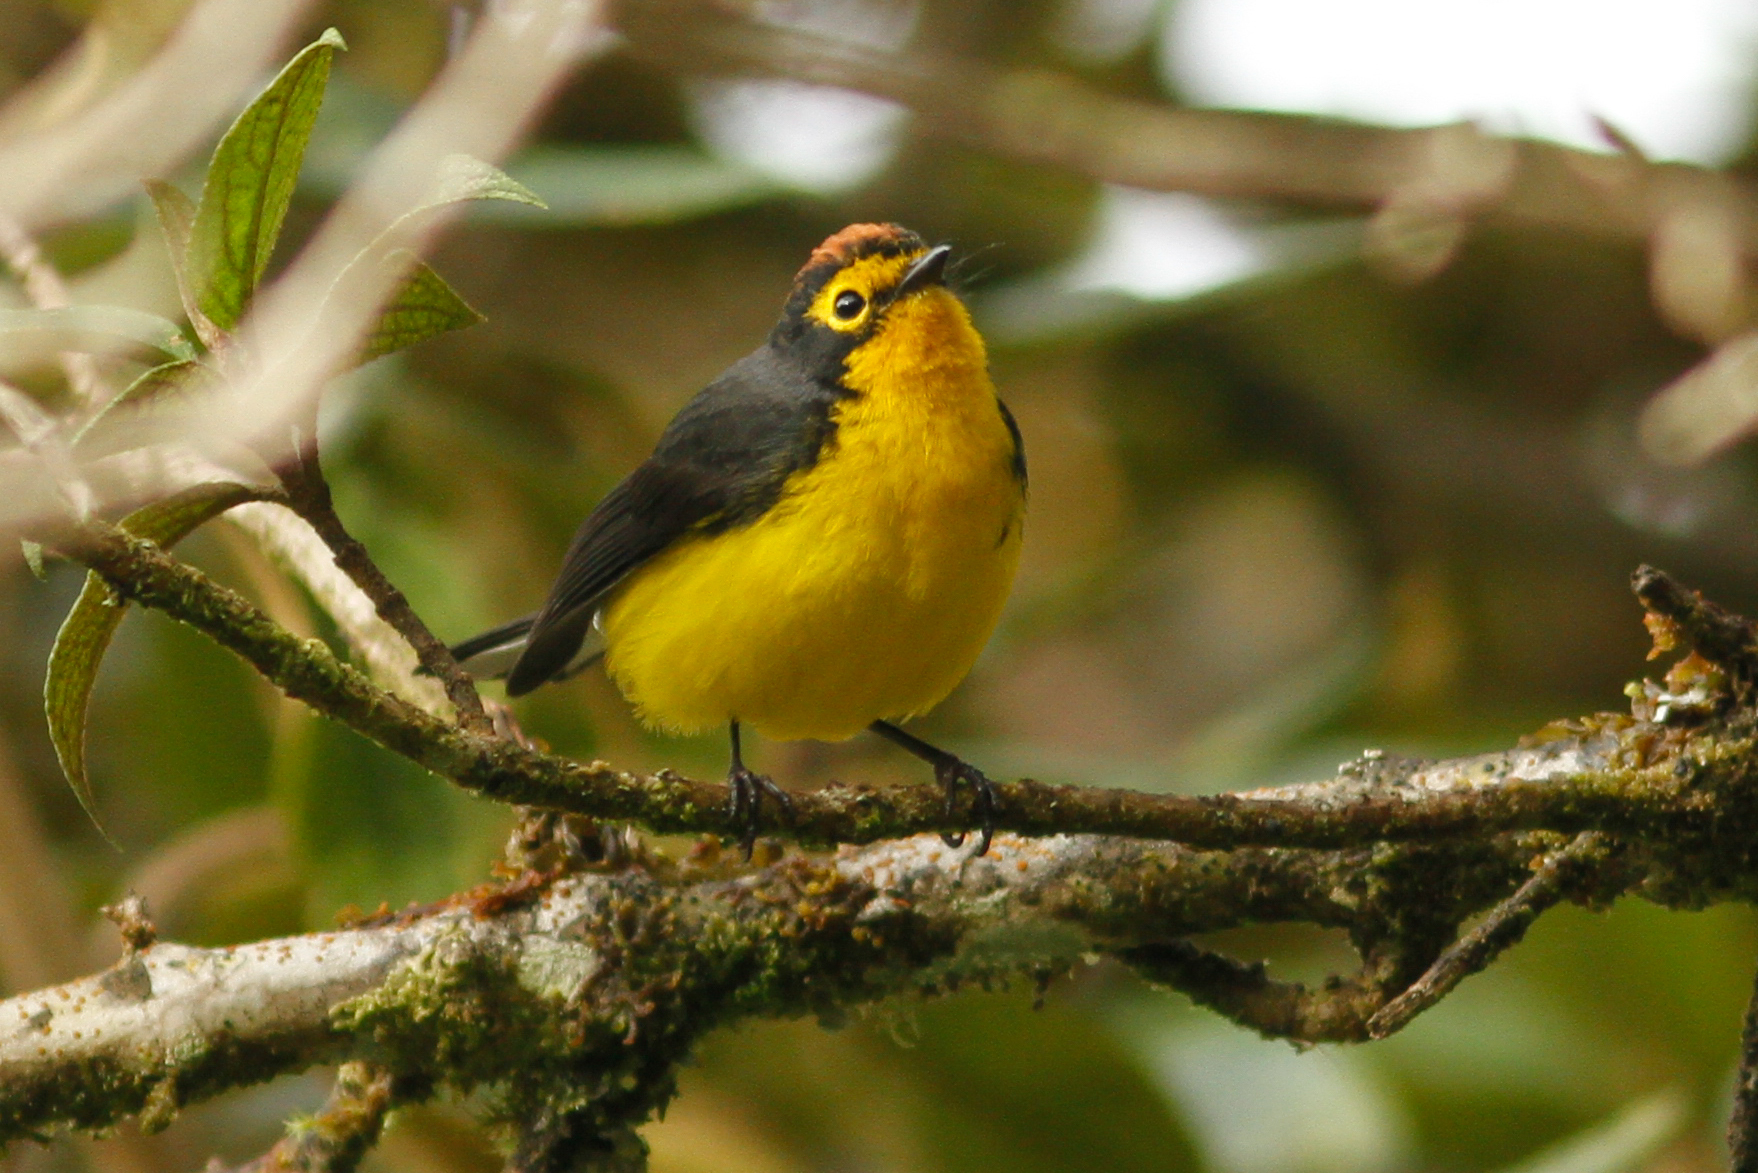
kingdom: Animalia
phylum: Chordata
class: Aves
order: Passeriformes
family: Parulidae
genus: Myioborus
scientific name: Myioborus melanocephalus
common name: Spectacled whitestart
